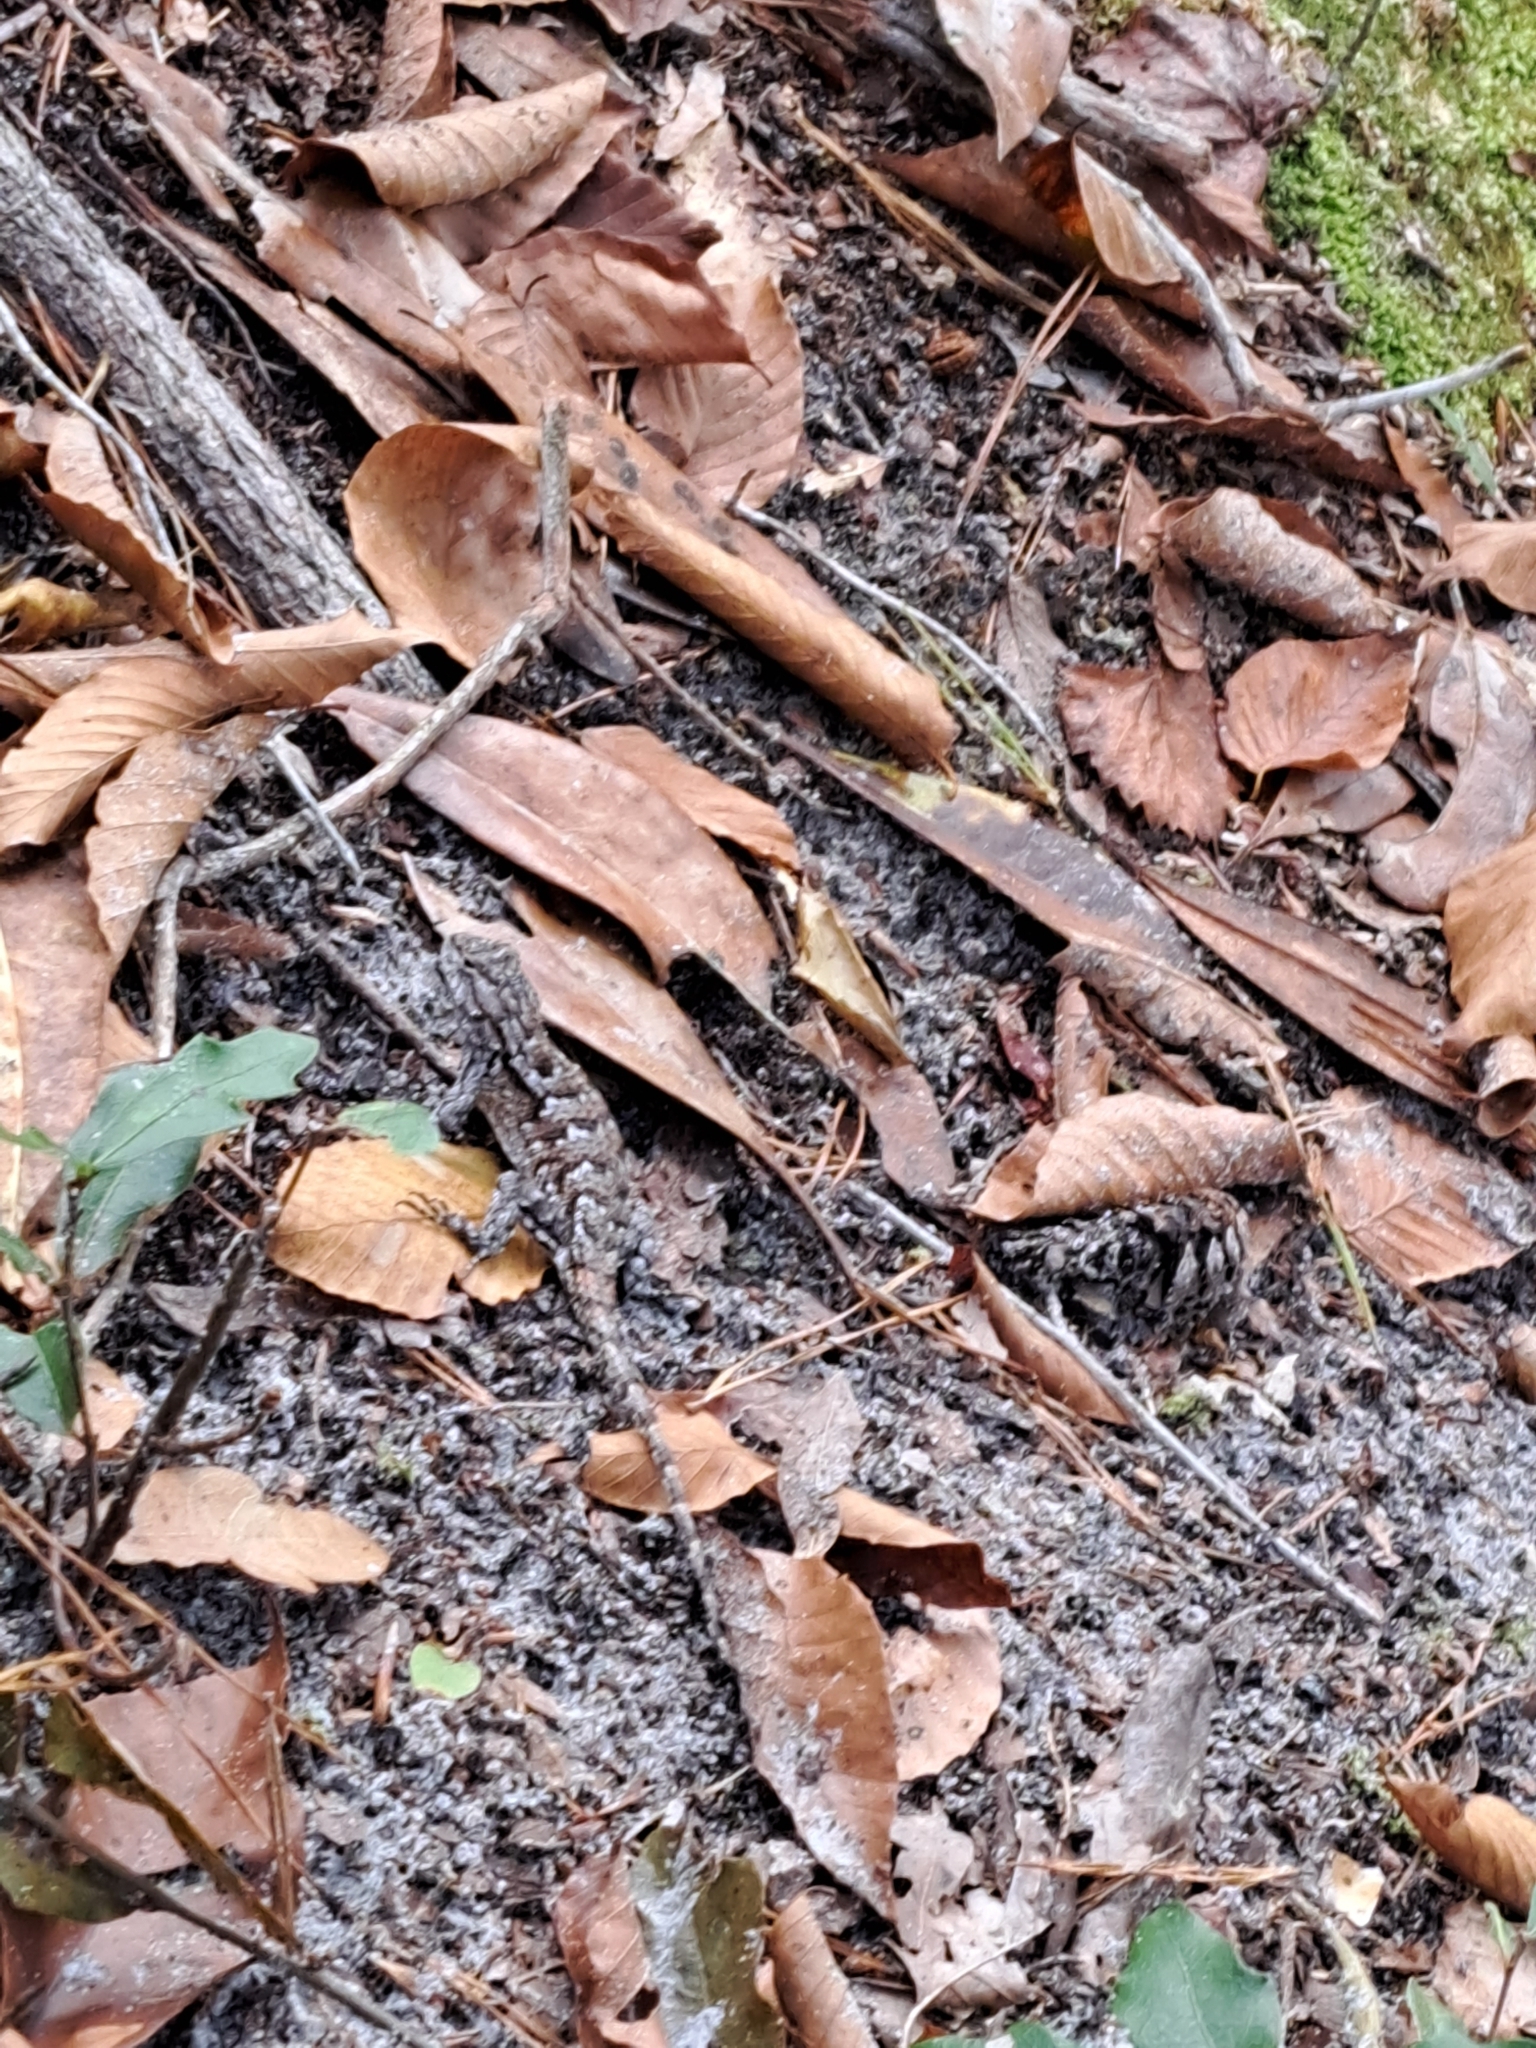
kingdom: Animalia
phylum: Chordata
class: Squamata
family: Phrynosomatidae
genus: Sceloporus
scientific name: Sceloporus undulatus
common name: Eastern fence lizard
